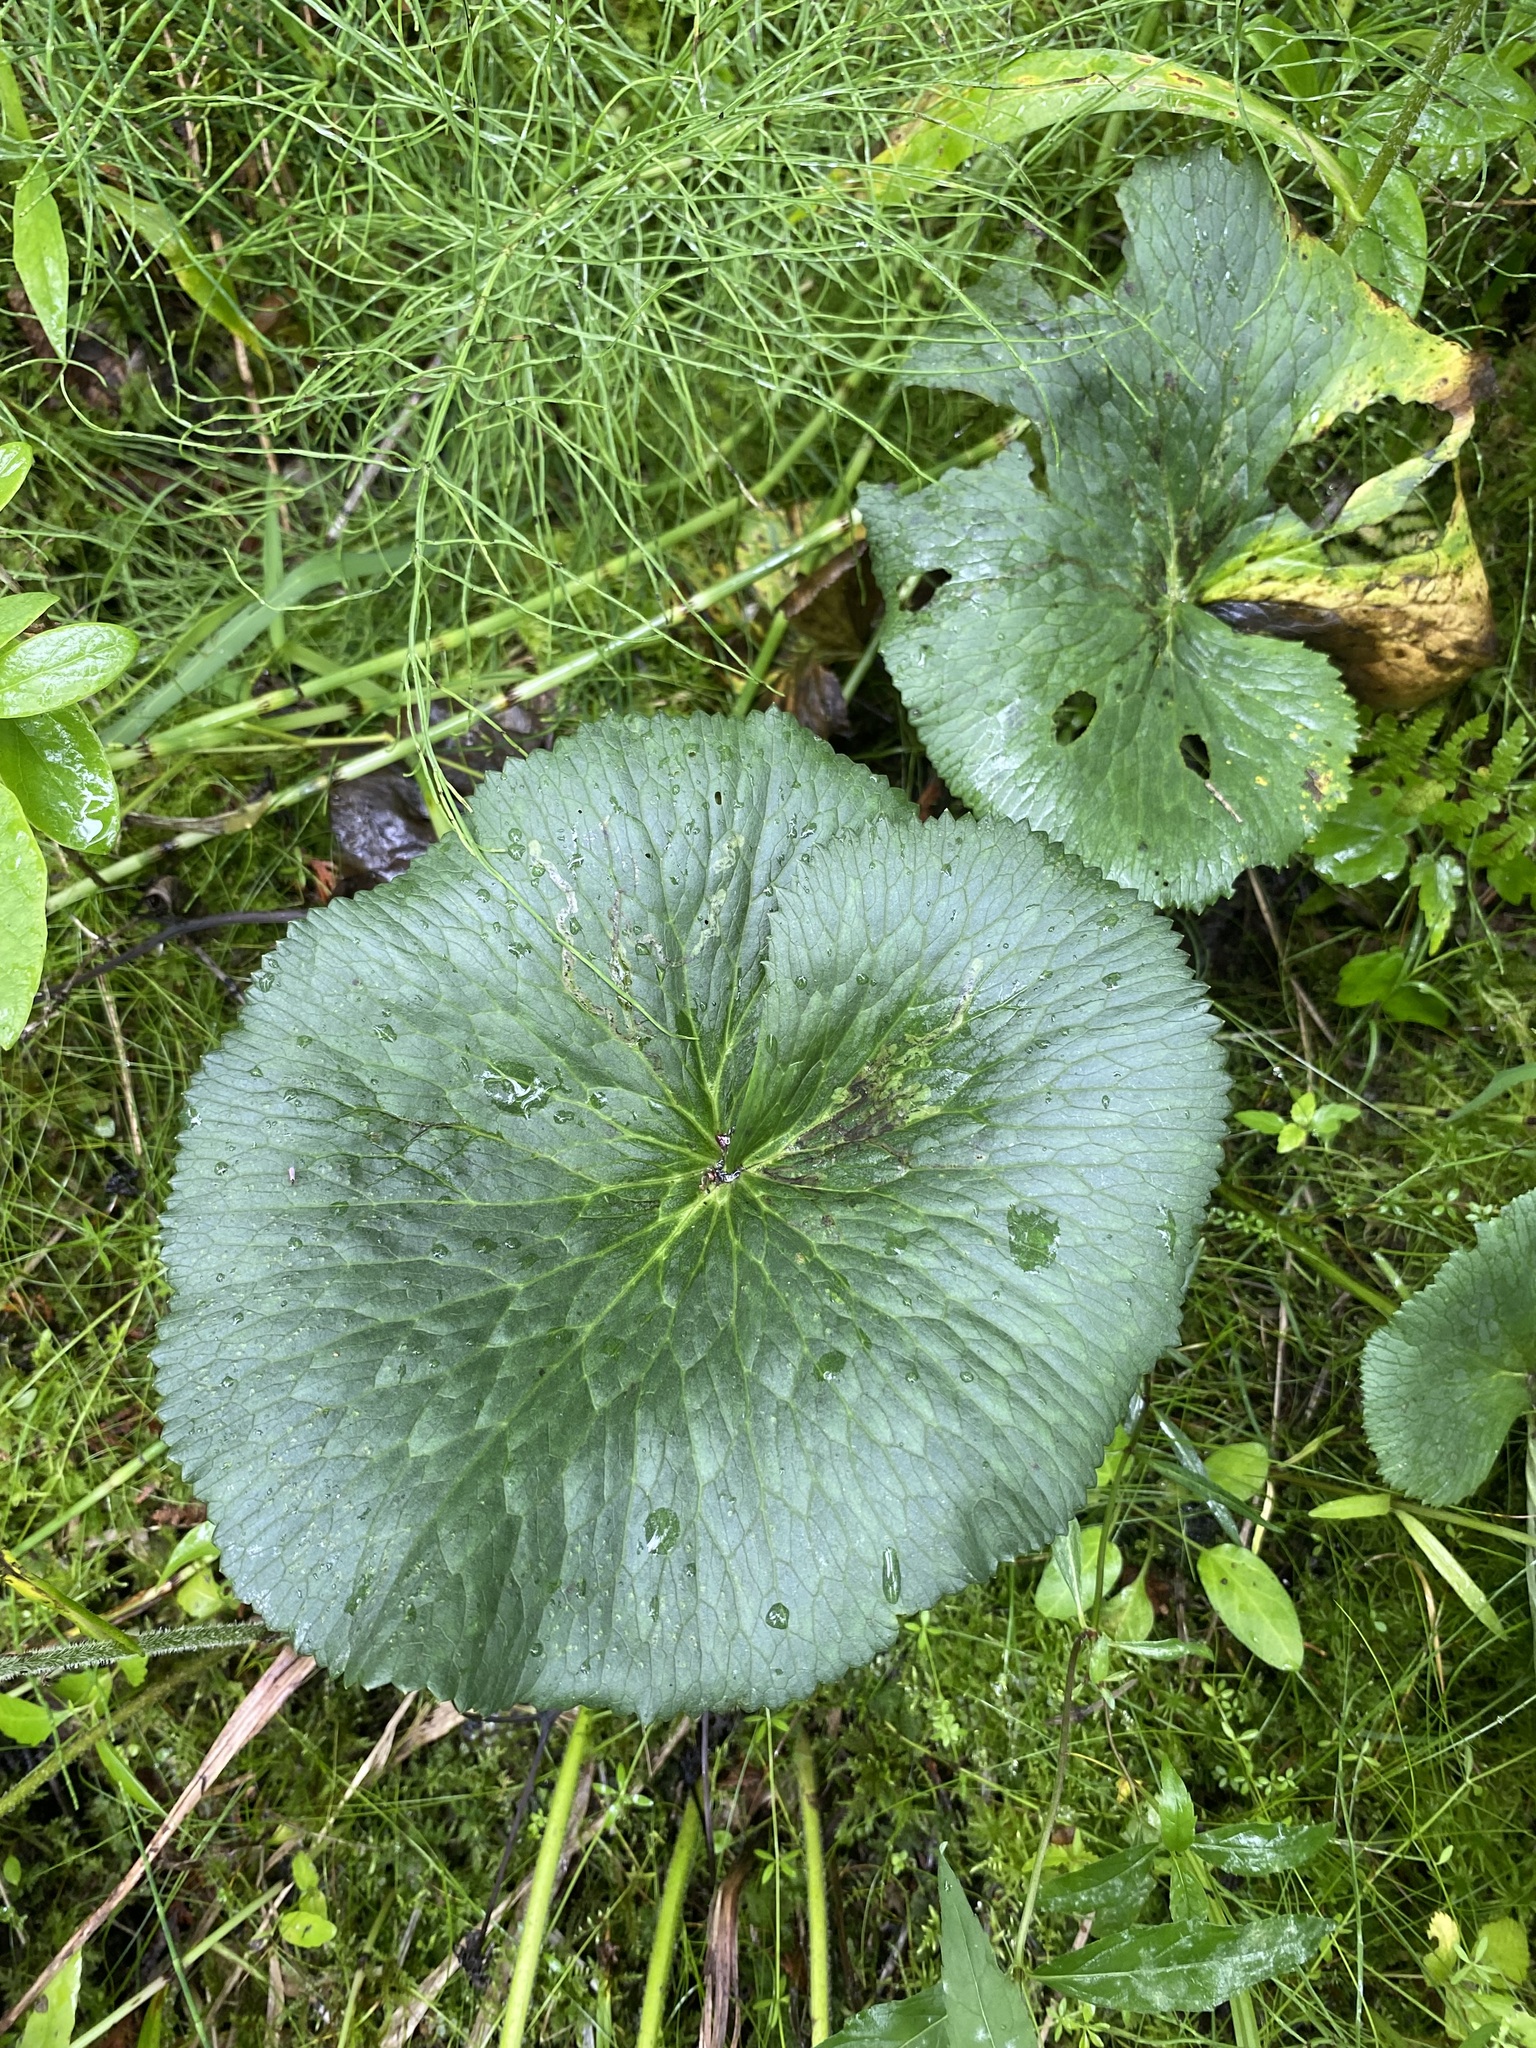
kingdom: Plantae
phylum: Tracheophyta
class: Magnoliopsida
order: Ranunculales
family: Ranunculaceae
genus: Caltha
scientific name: Caltha palustris
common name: Marsh marigold
